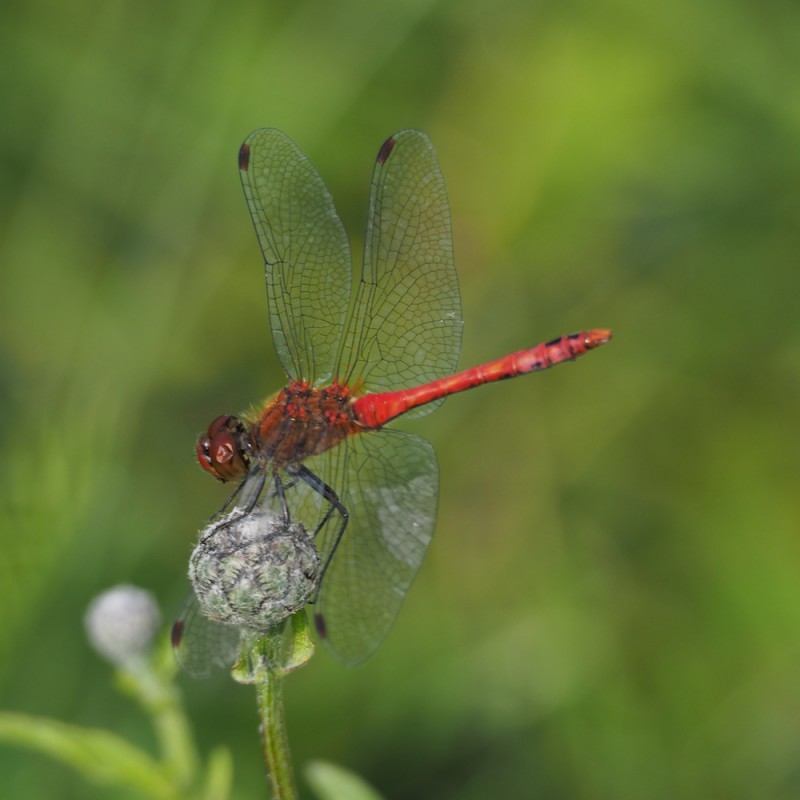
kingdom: Animalia
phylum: Arthropoda
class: Insecta
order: Odonata
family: Libellulidae
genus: Sympetrum
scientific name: Sympetrum sanguineum
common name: Ruddy darter
